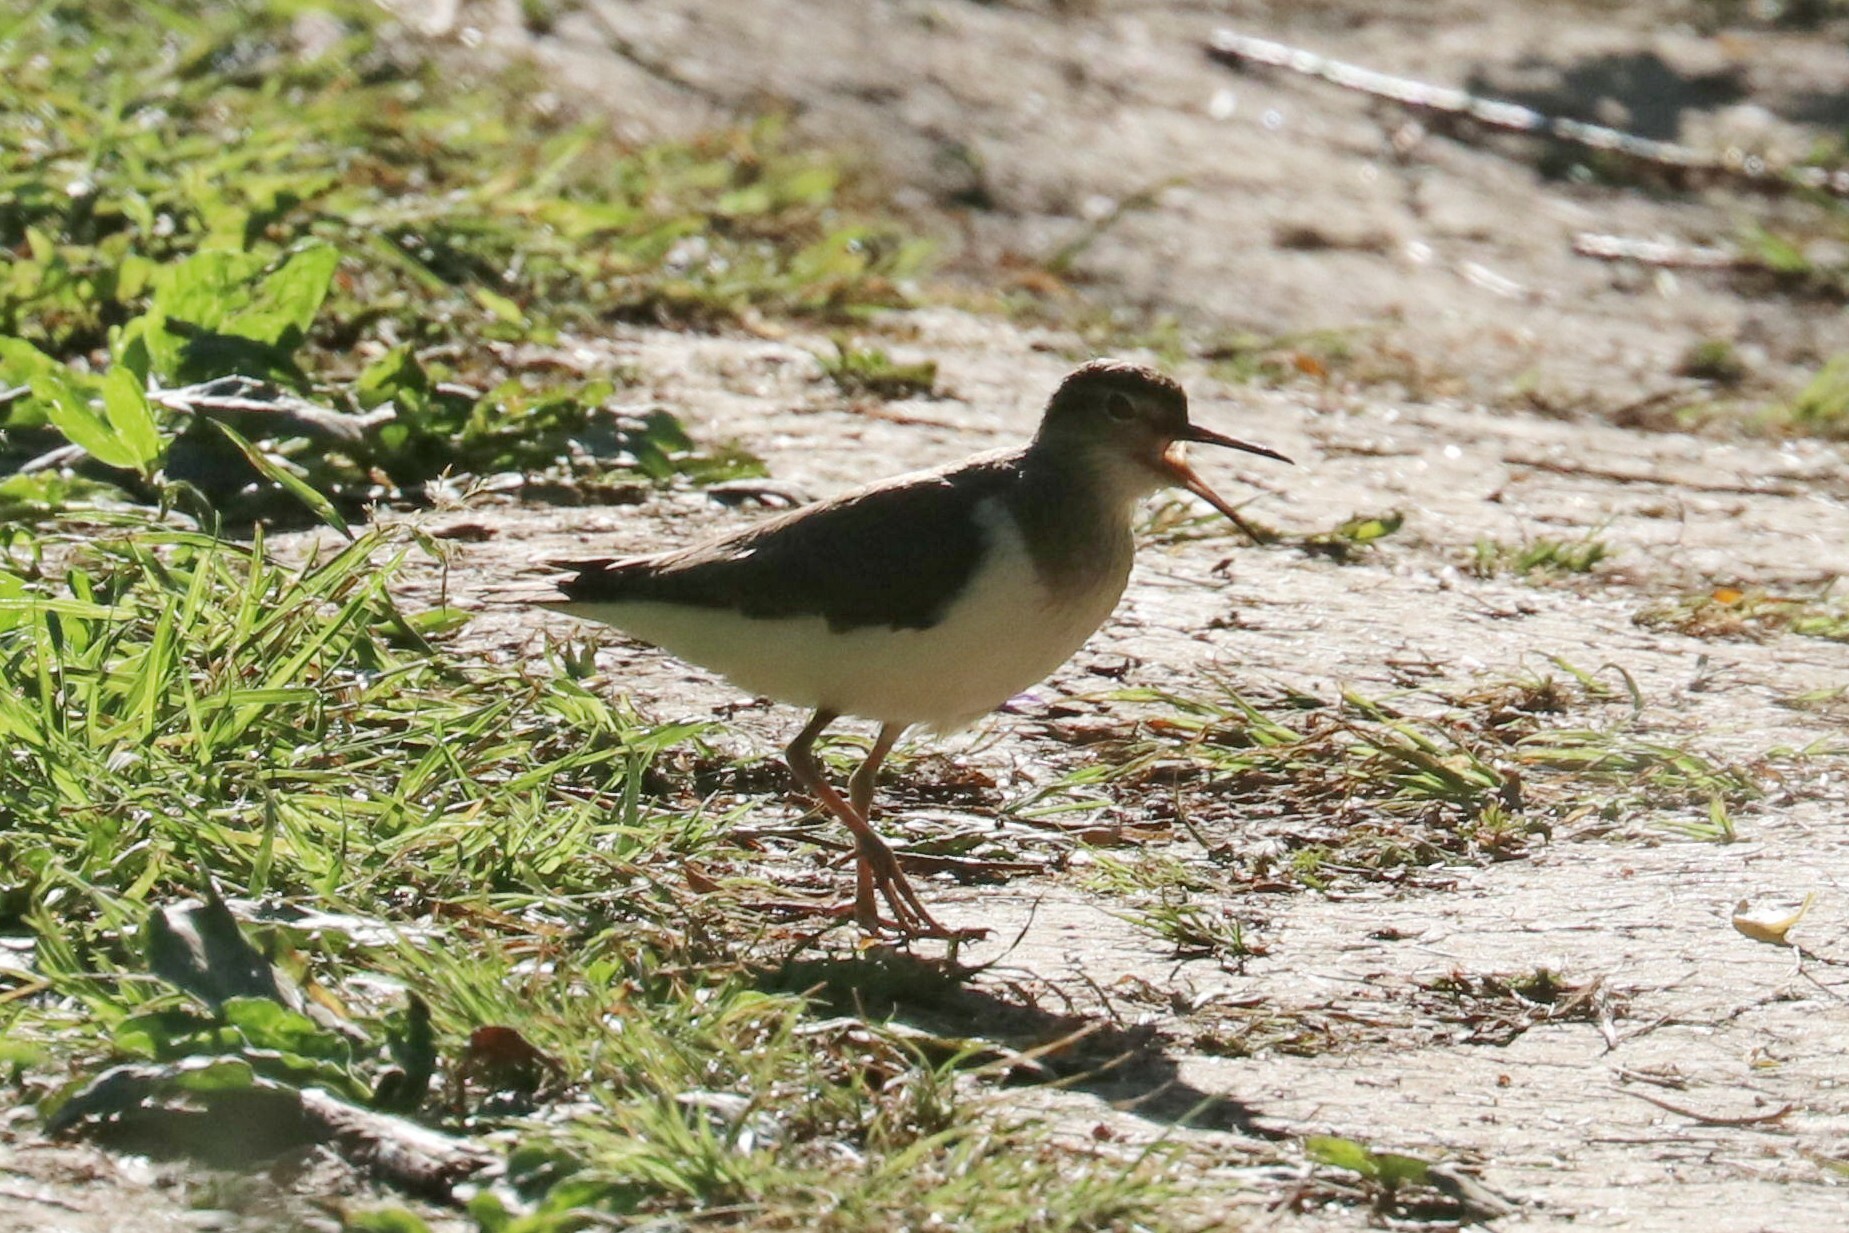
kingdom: Animalia
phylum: Chordata
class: Aves
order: Charadriiformes
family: Scolopacidae
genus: Actitis
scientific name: Actitis hypoleucos
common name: Common sandpiper
